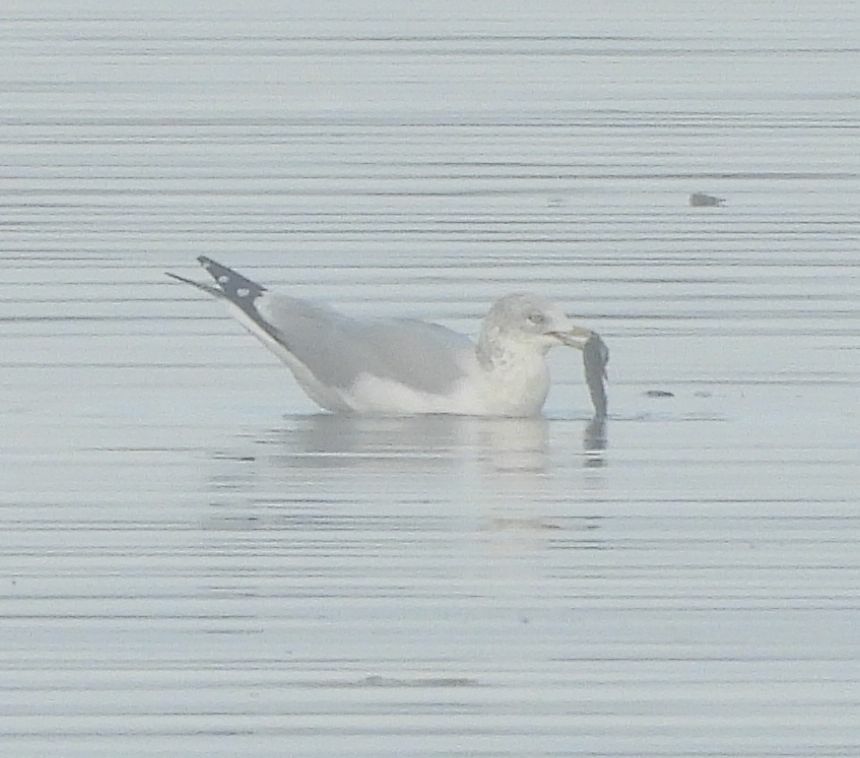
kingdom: Animalia
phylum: Chordata
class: Aves
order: Charadriiformes
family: Laridae
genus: Larus
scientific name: Larus delawarensis
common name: Ring-billed gull
